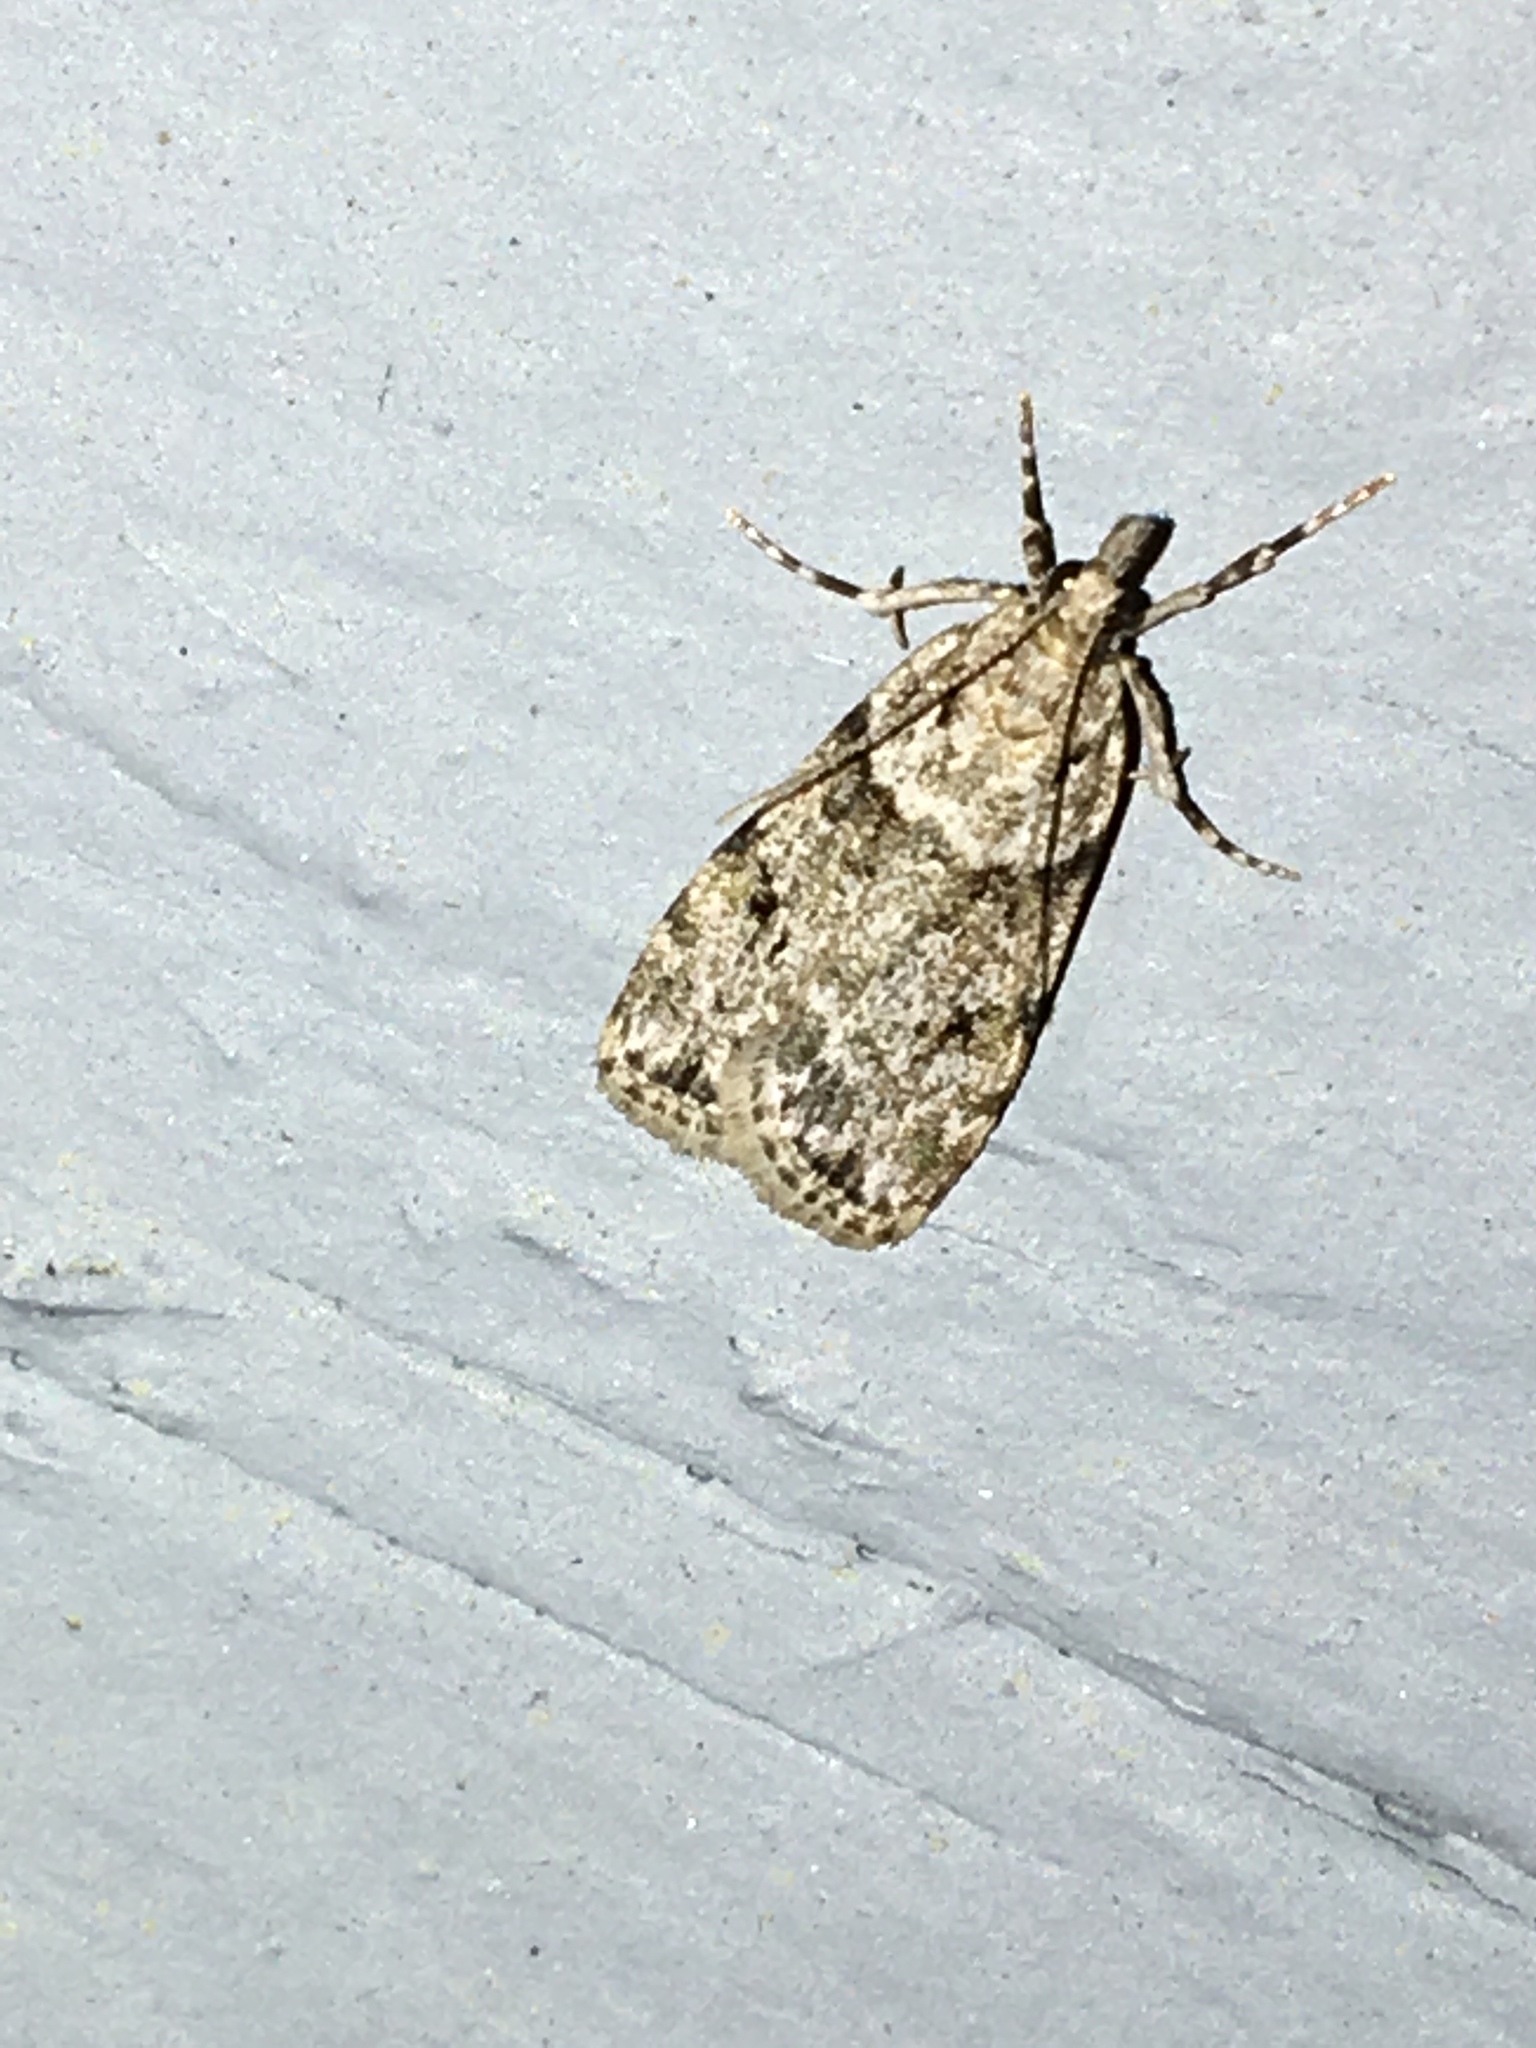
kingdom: Animalia
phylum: Arthropoda
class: Insecta
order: Lepidoptera
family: Crambidae
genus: Scoparia
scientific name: Scoparia biplagialis
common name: Double-striped scoparia moth
